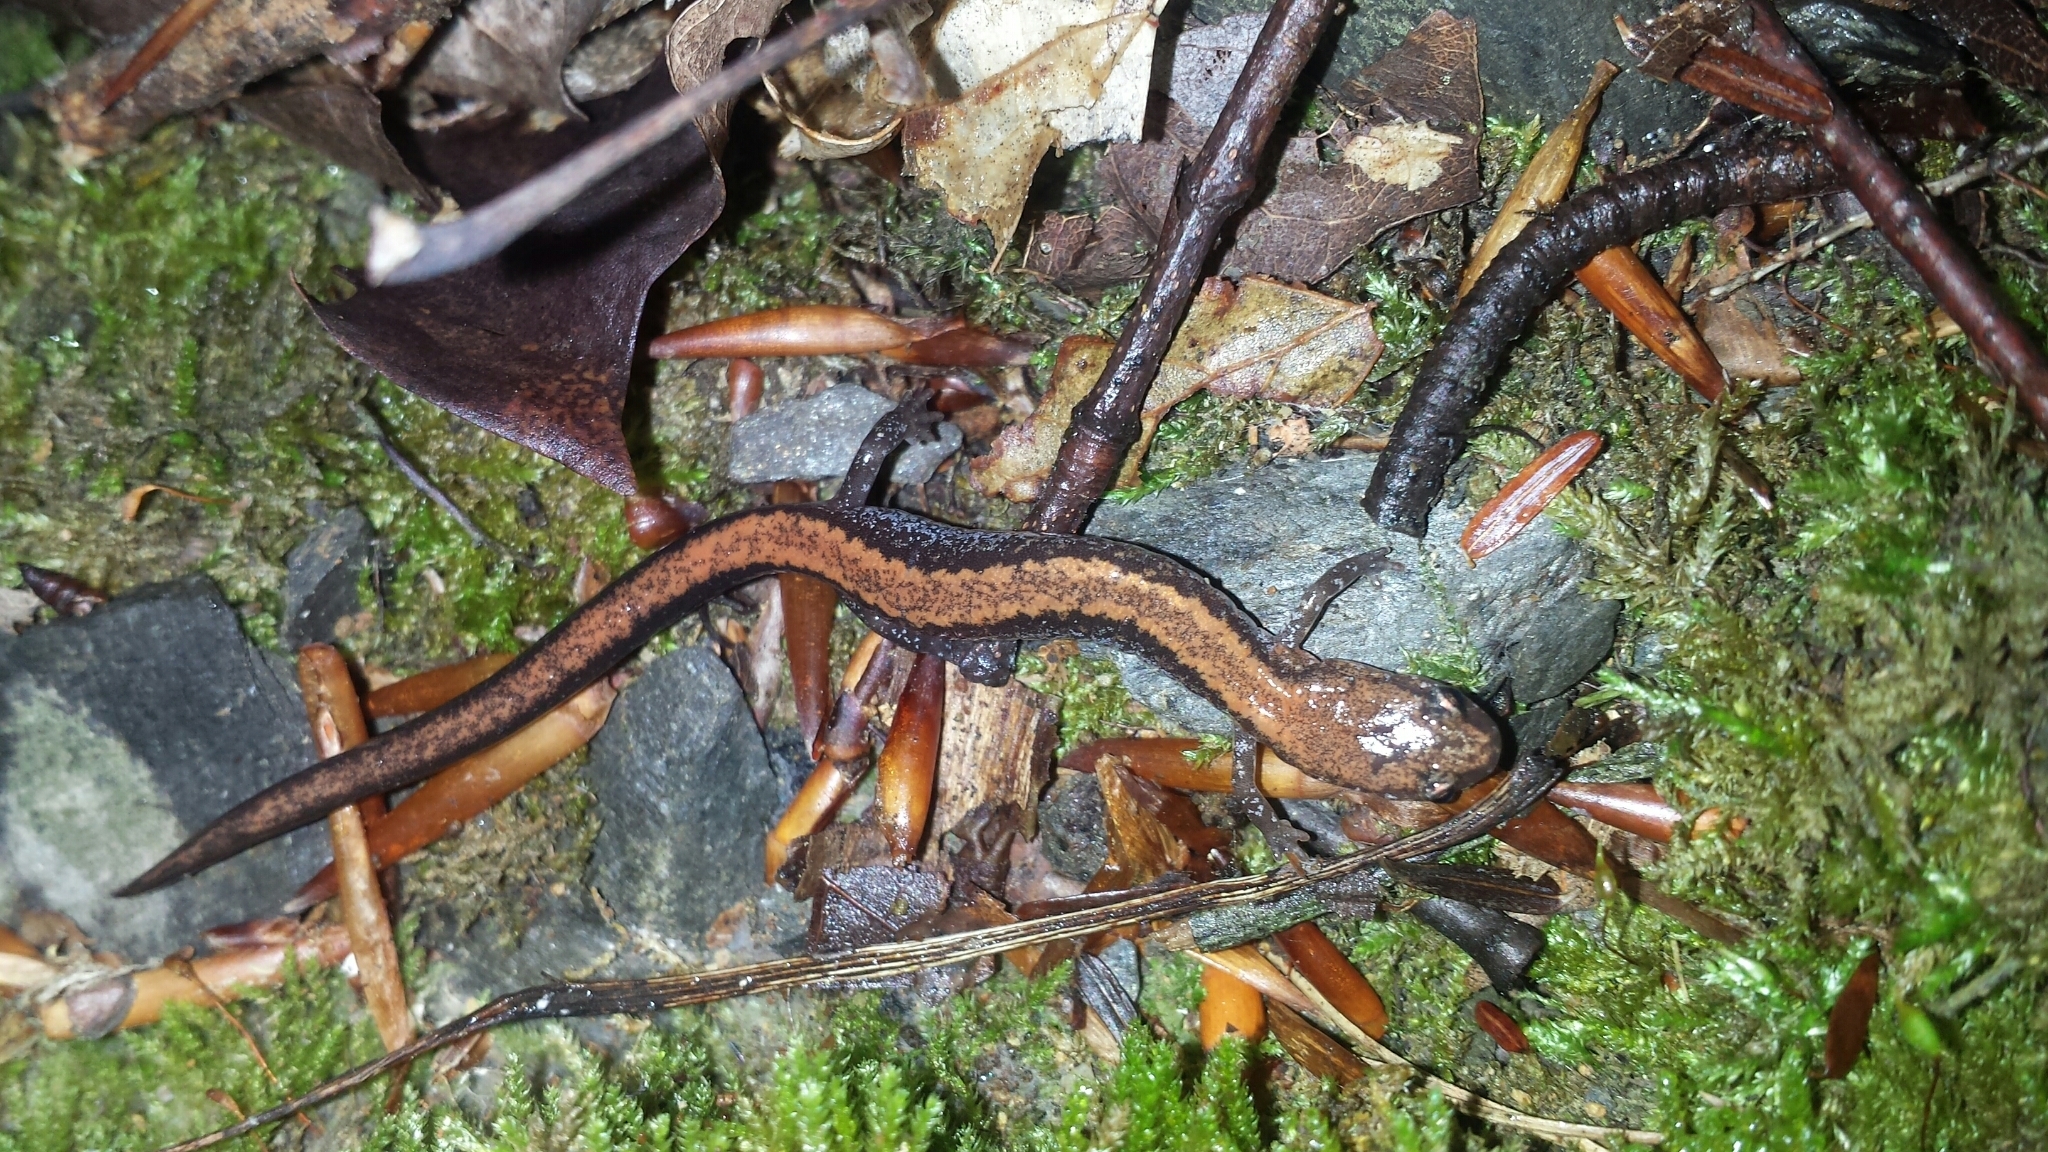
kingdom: Animalia
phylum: Chordata
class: Amphibia
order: Caudata
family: Plethodontidae
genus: Plethodon
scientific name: Plethodon cinereus
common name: Redback salamander
